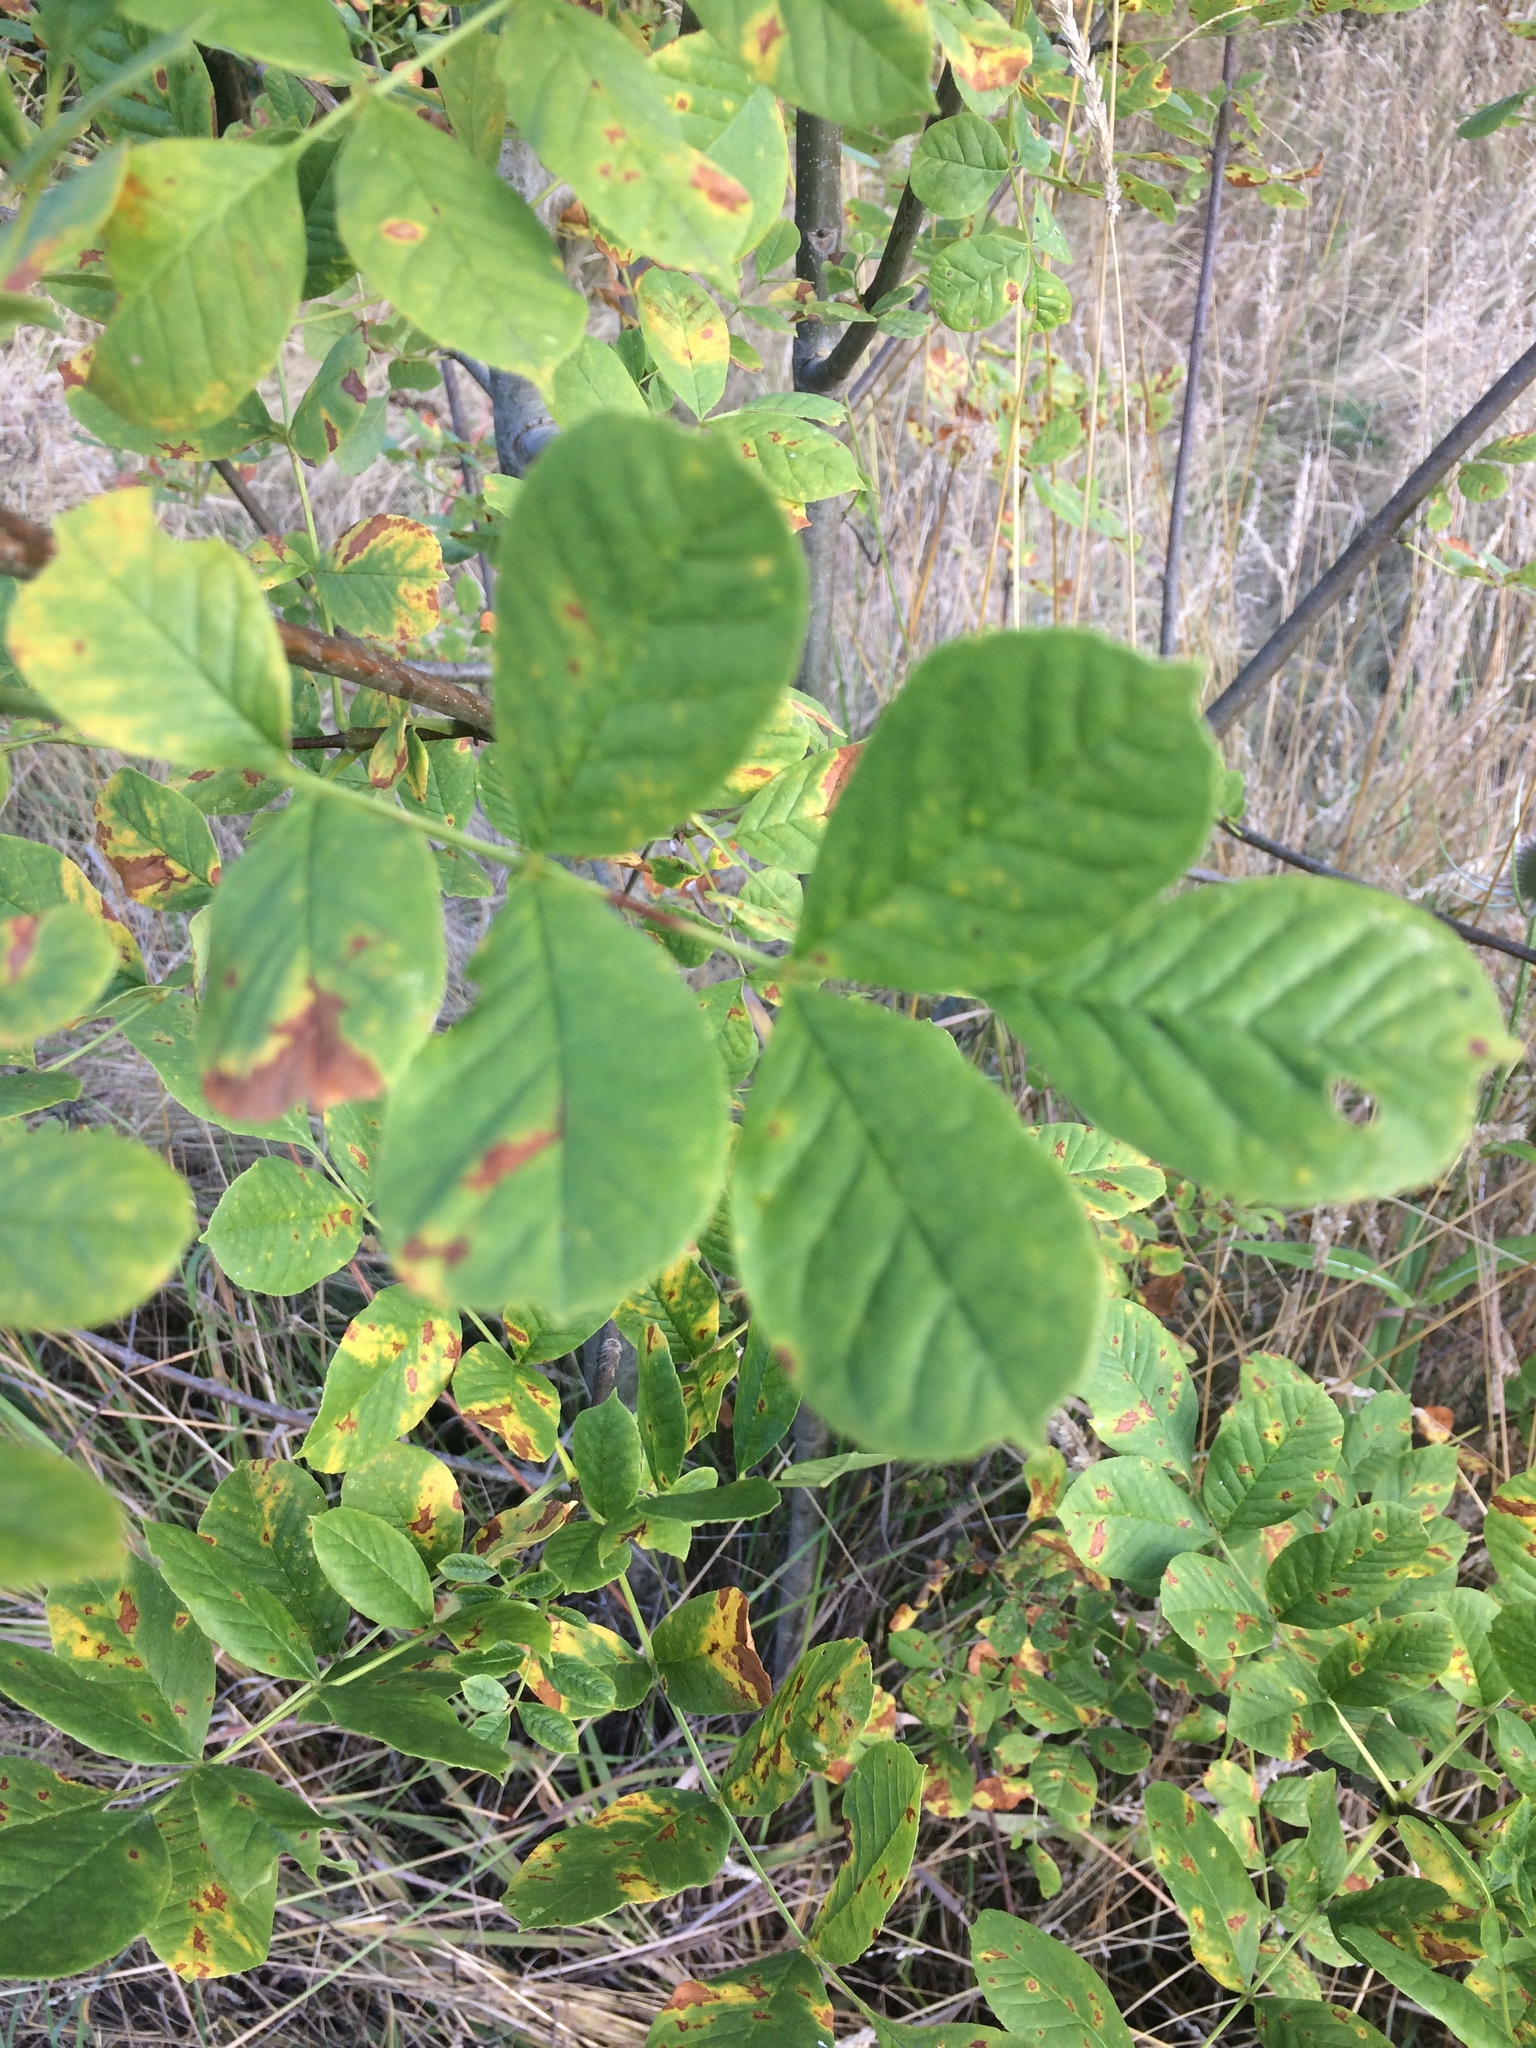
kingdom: Plantae
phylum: Tracheophyta
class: Magnoliopsida
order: Lamiales
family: Oleaceae
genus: Fraxinus
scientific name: Fraxinus latifolia
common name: Oregon ash
